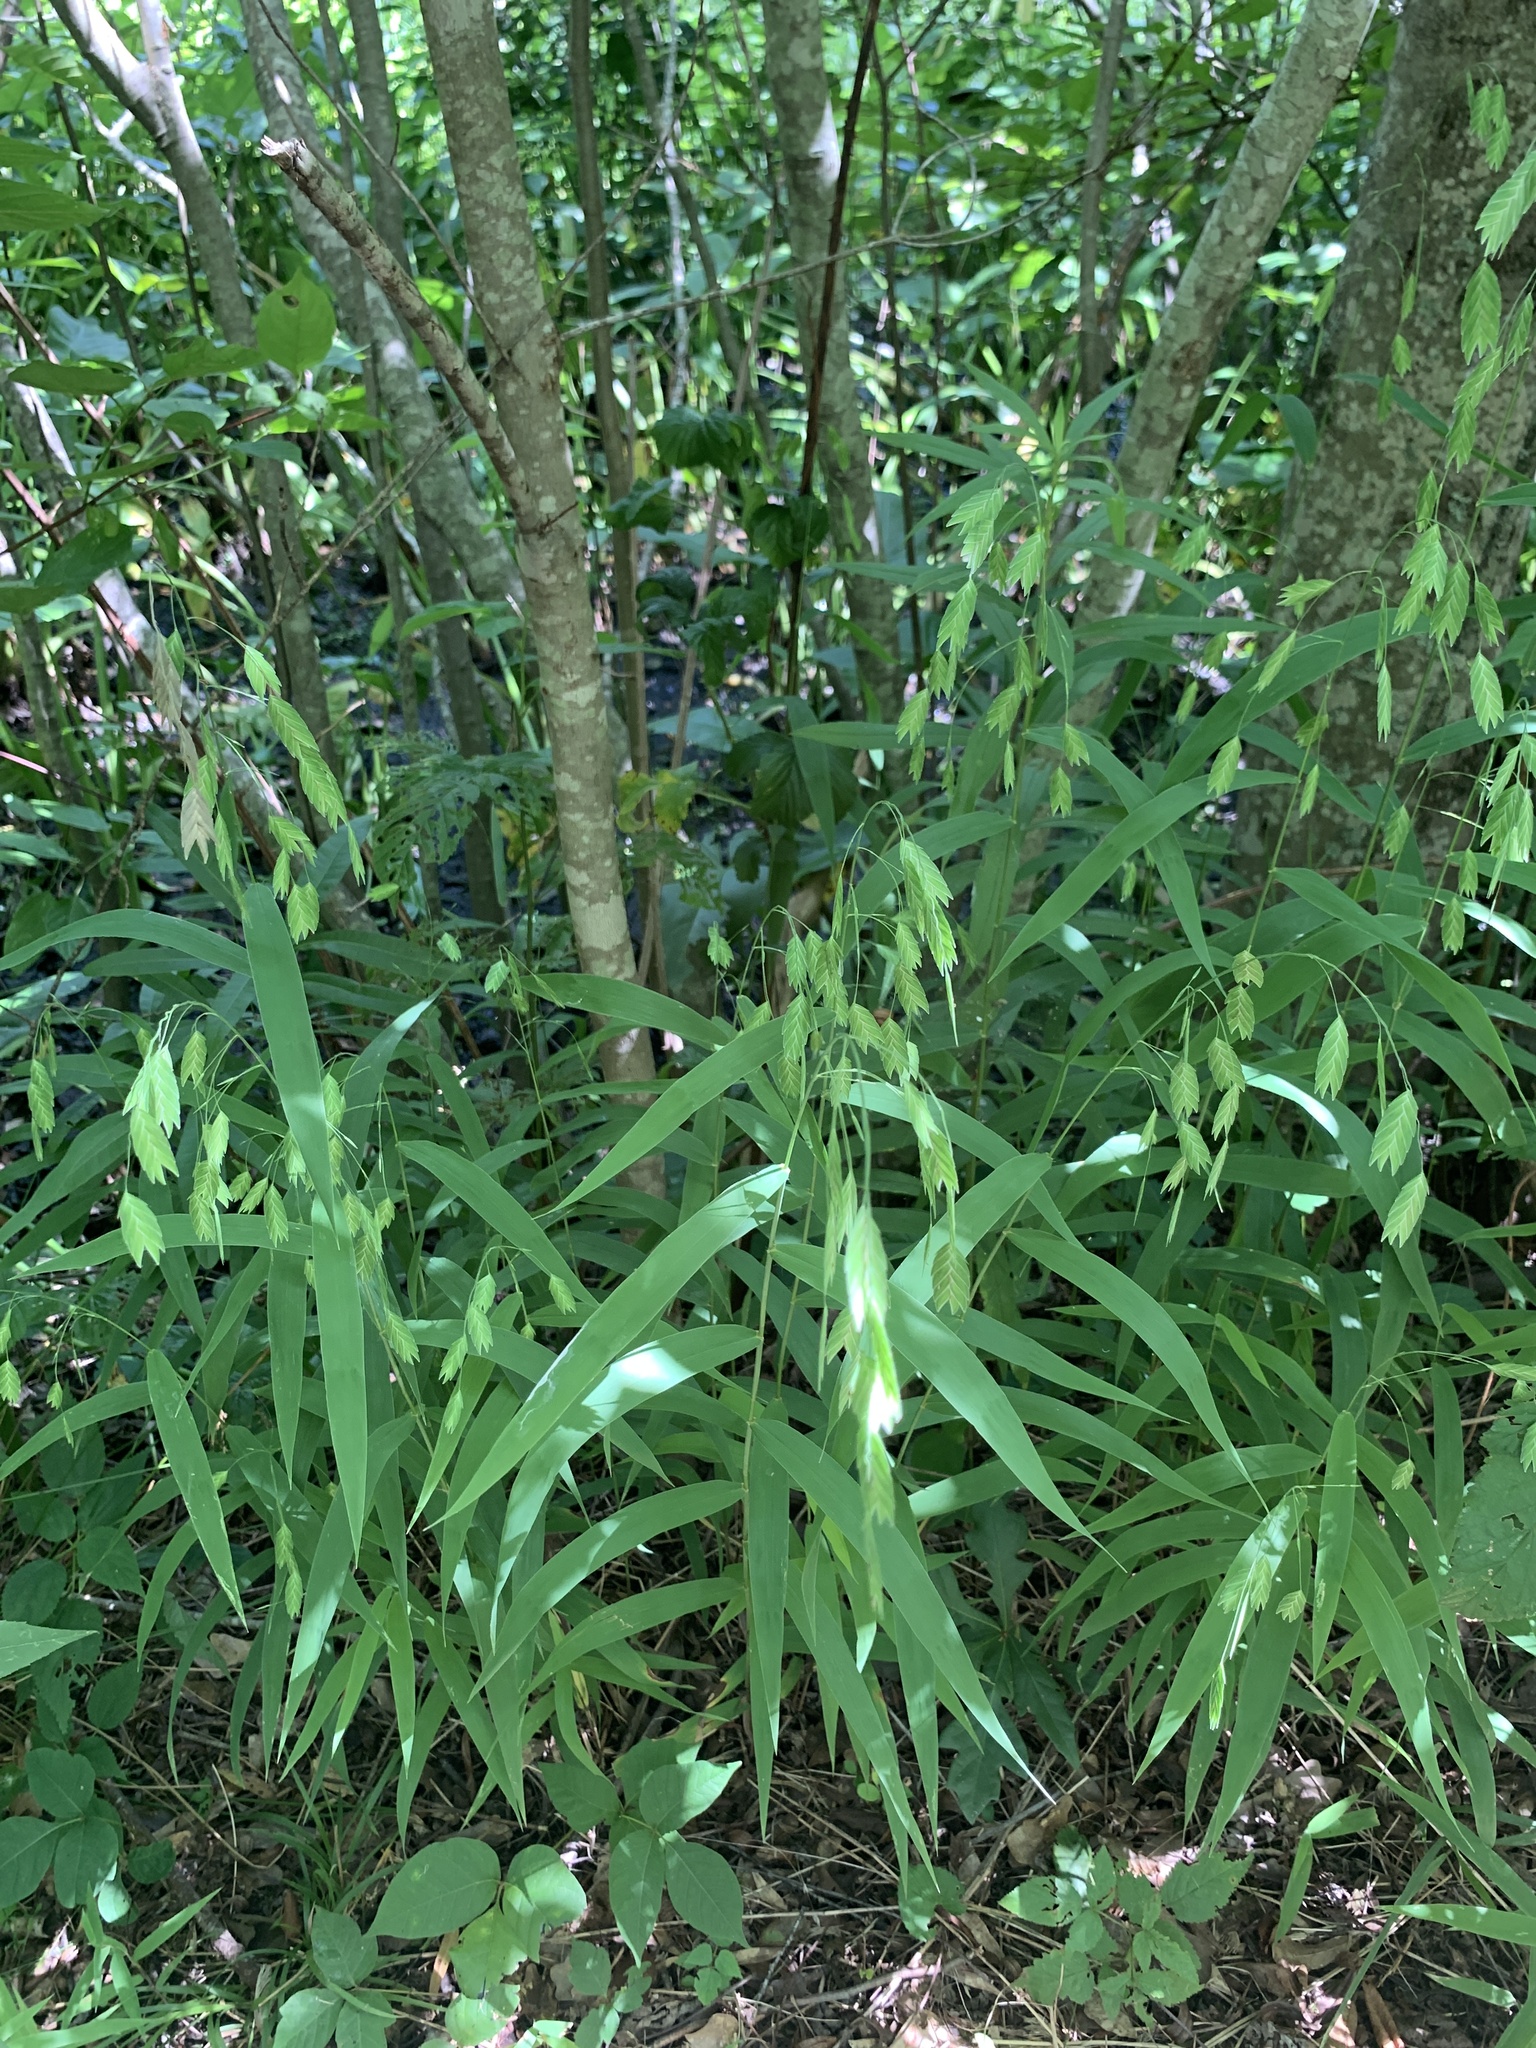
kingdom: Plantae
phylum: Tracheophyta
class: Liliopsida
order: Poales
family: Poaceae
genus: Chasmanthium
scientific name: Chasmanthium latifolium
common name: Broad-leaved chasmanthium
